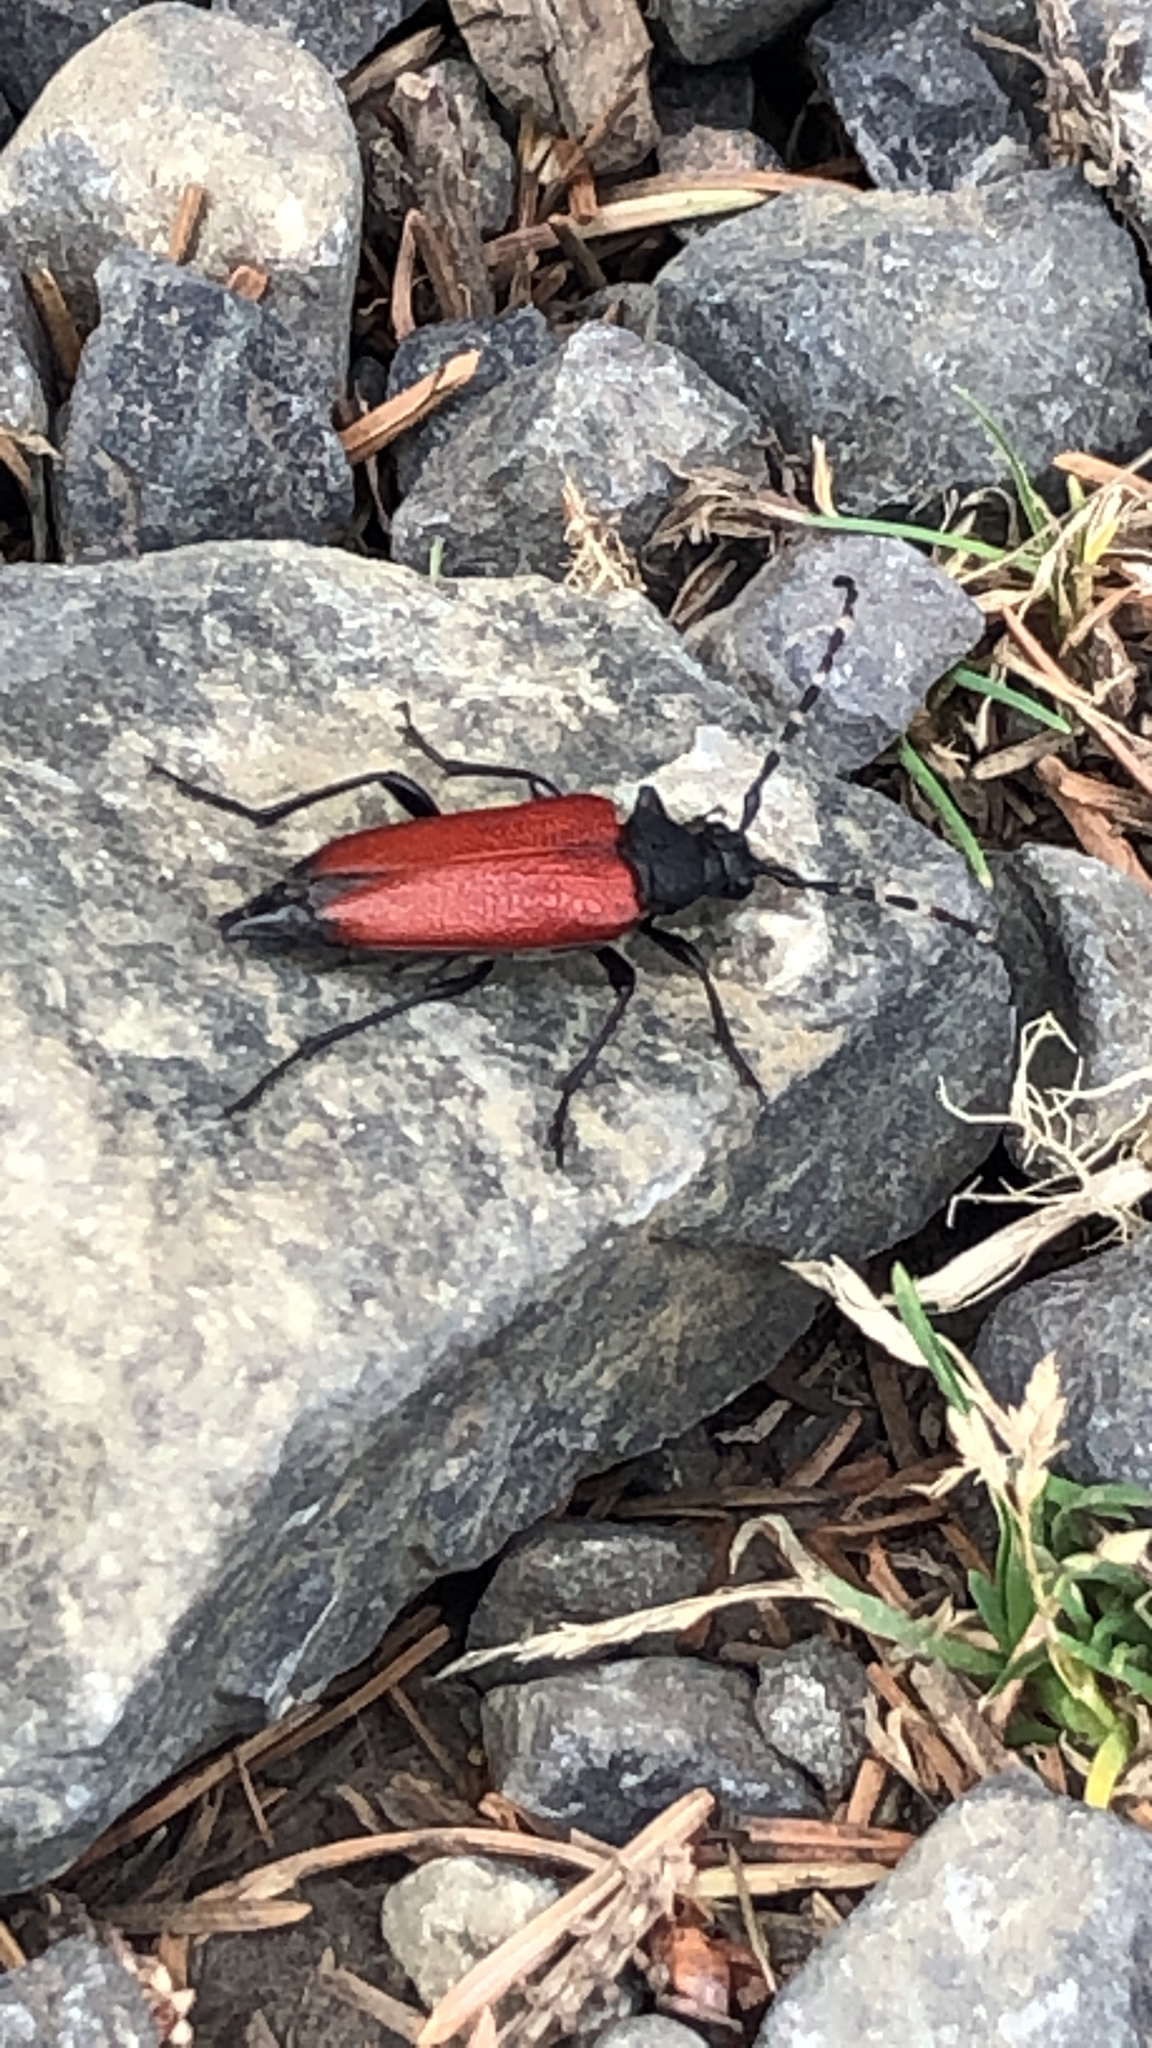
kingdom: Animalia
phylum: Arthropoda
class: Insecta
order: Coleoptera
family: Cerambycidae
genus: Stictoleptura
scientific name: Stictoleptura canadensis
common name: Red-shouldered pine borer
